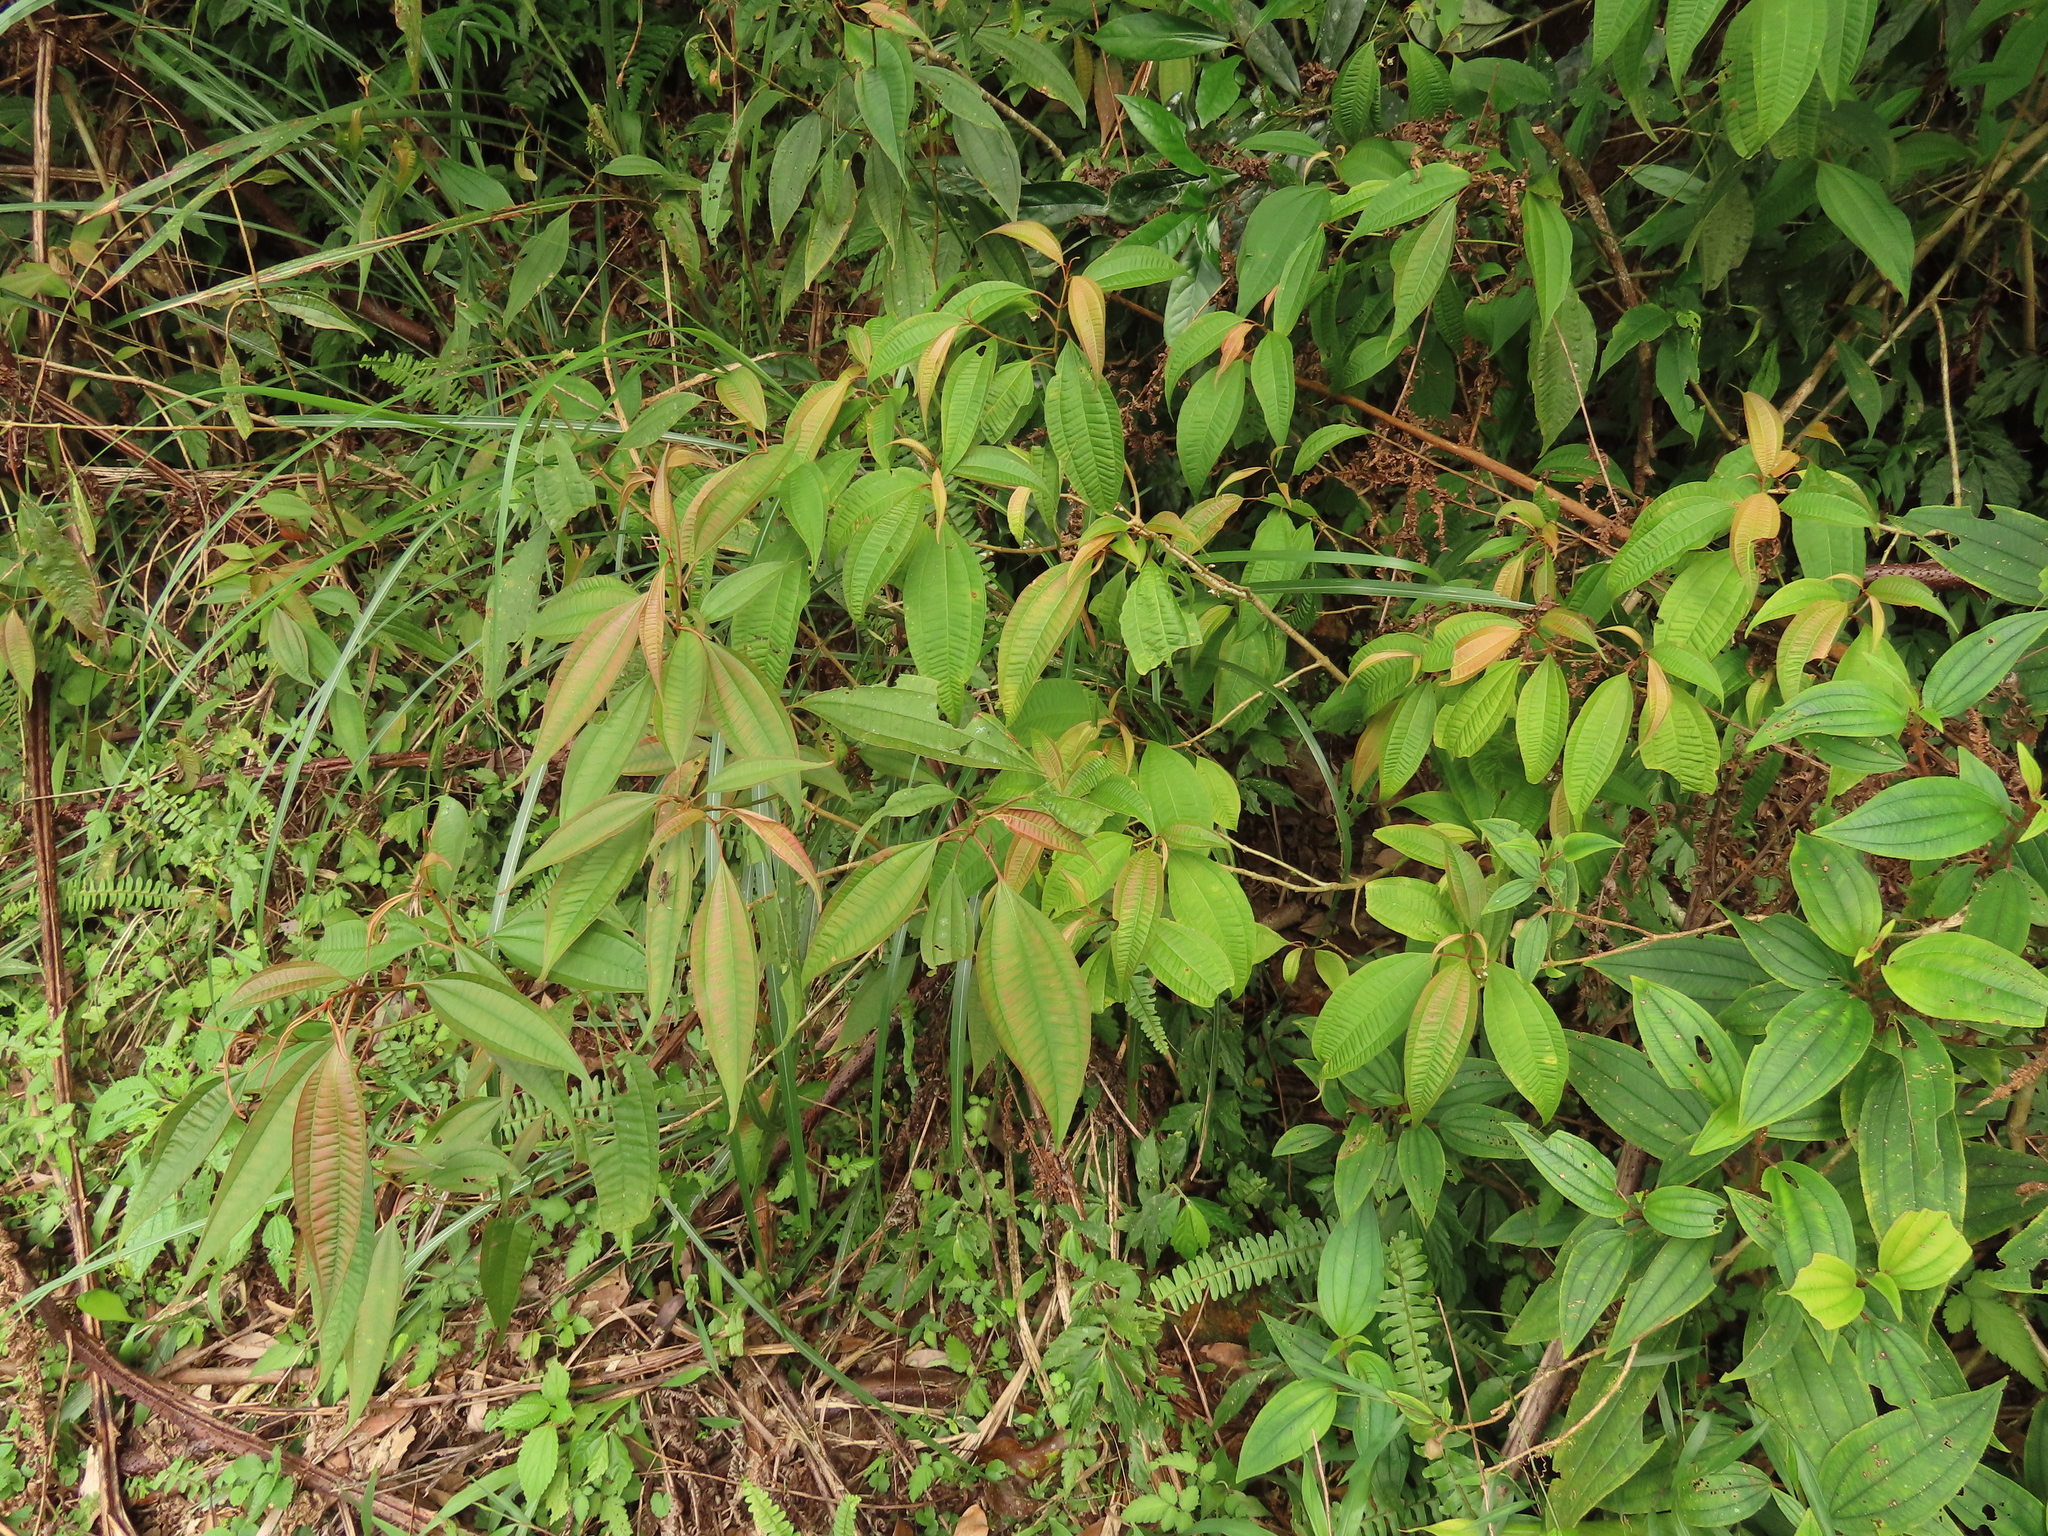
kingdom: Plantae
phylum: Tracheophyta
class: Magnoliopsida
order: Myrtales
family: Melastomataceae
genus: Blastus
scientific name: Blastus cochinchinensis
